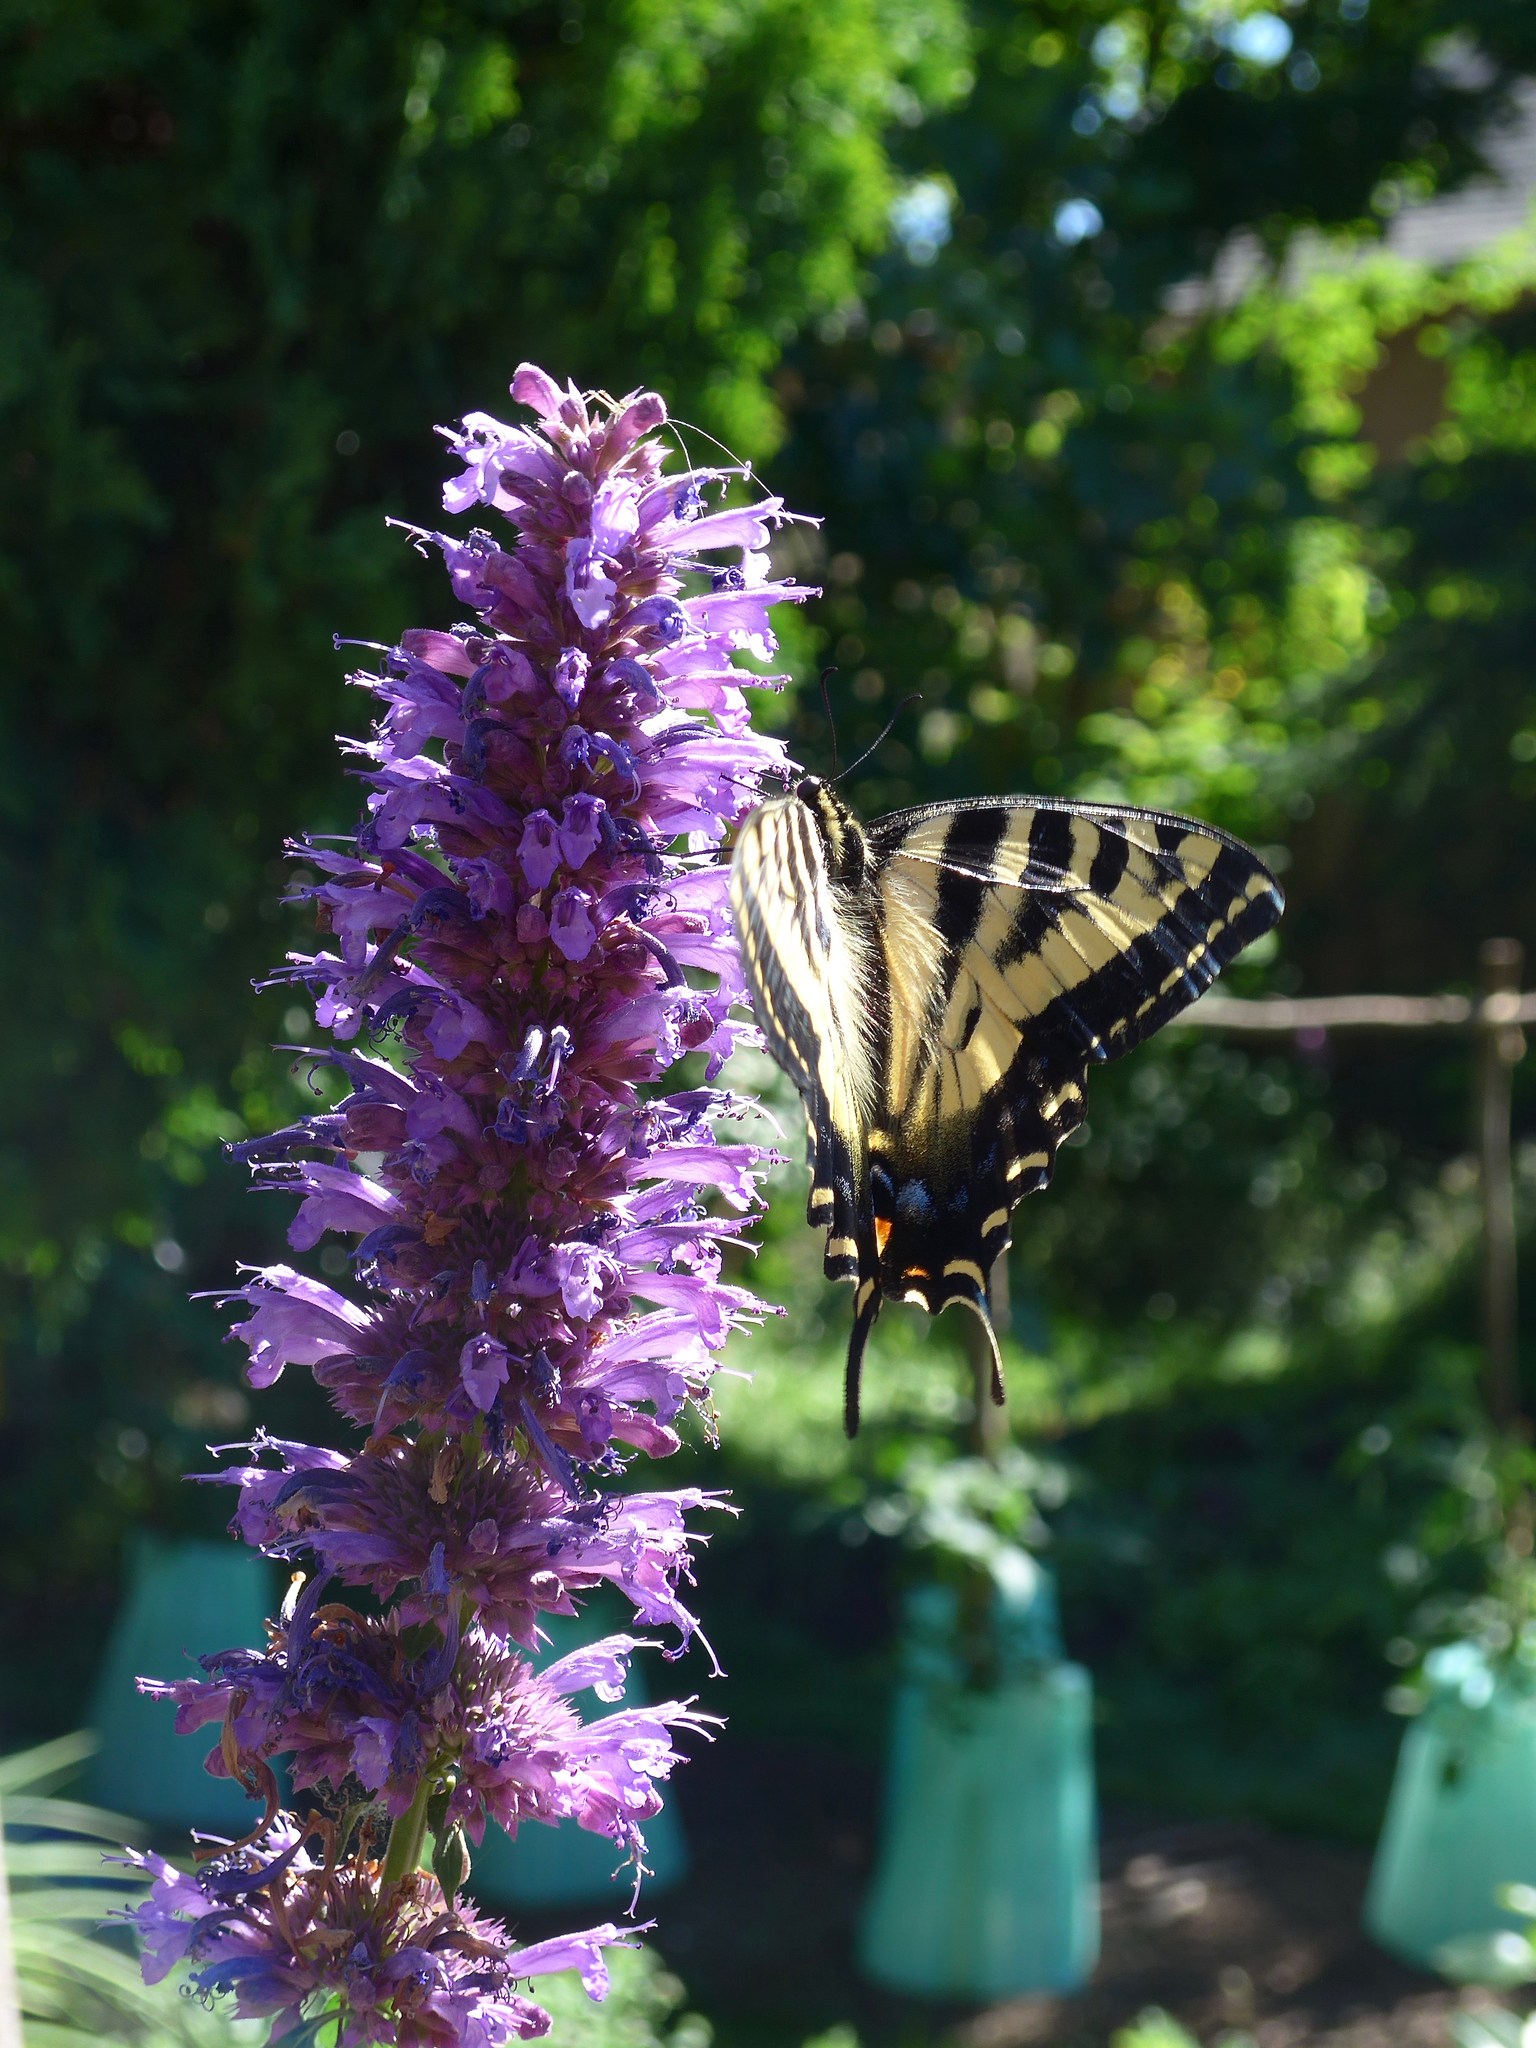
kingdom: Animalia
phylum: Arthropoda
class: Insecta
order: Lepidoptera
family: Papilionidae
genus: Papilio
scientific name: Papilio rutulus
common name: Western tiger swallowtail
